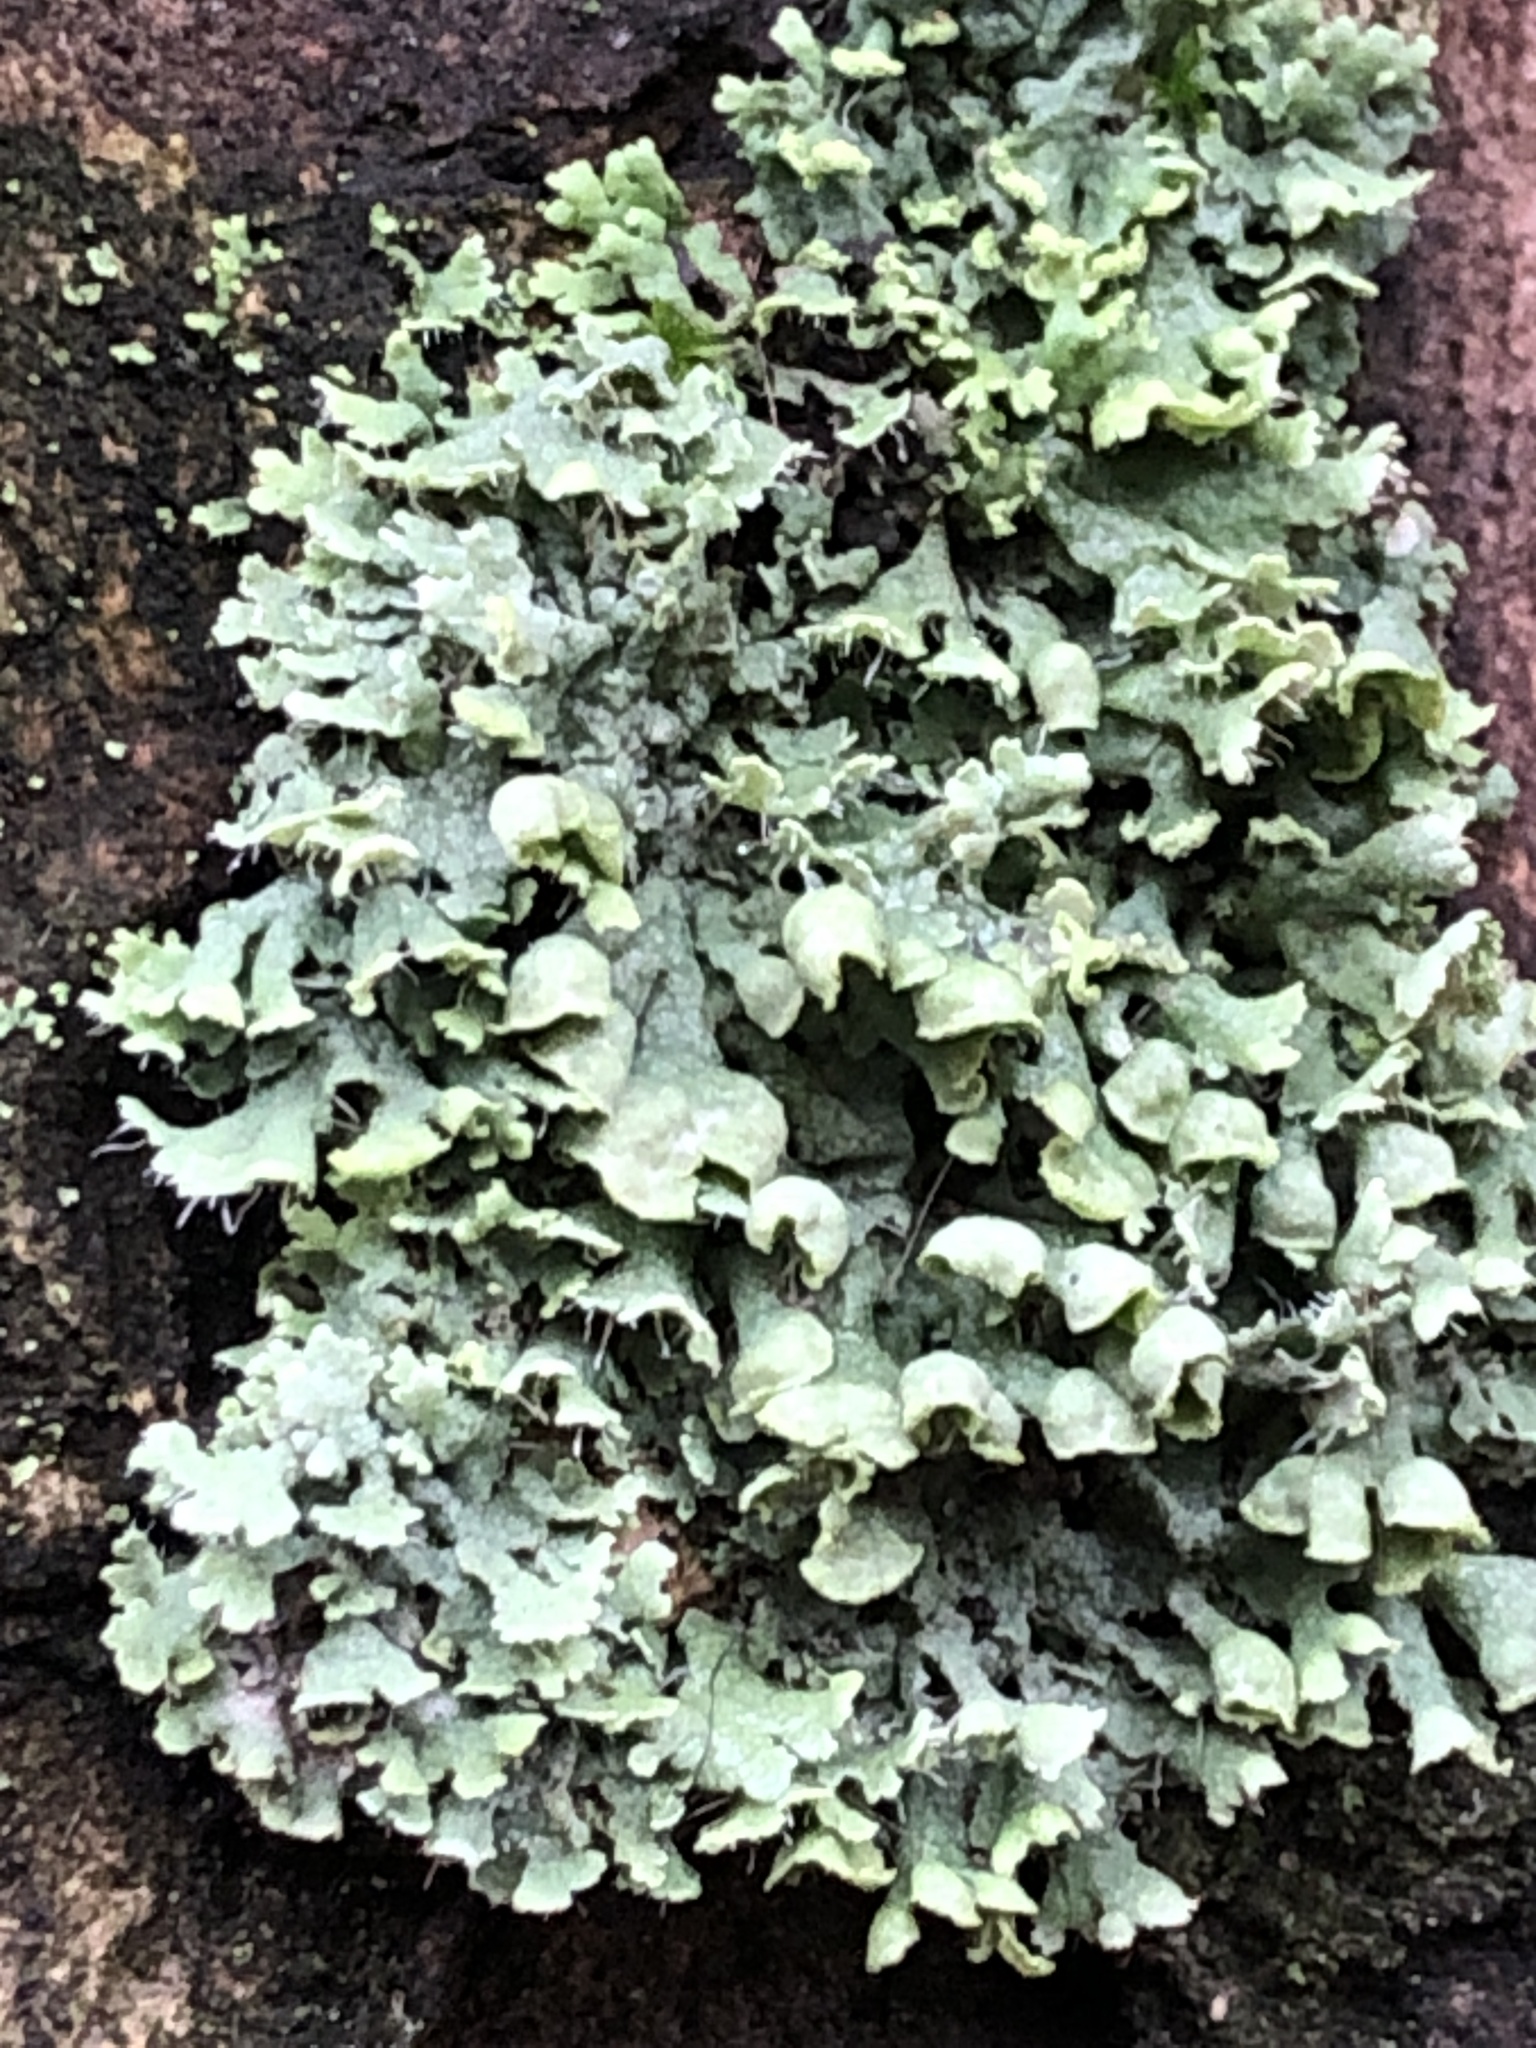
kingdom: Fungi
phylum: Ascomycota
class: Lecanoromycetes
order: Caliciales
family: Physciaceae
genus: Physcia
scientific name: Physcia adscendens
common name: Hooded rosette lichen
